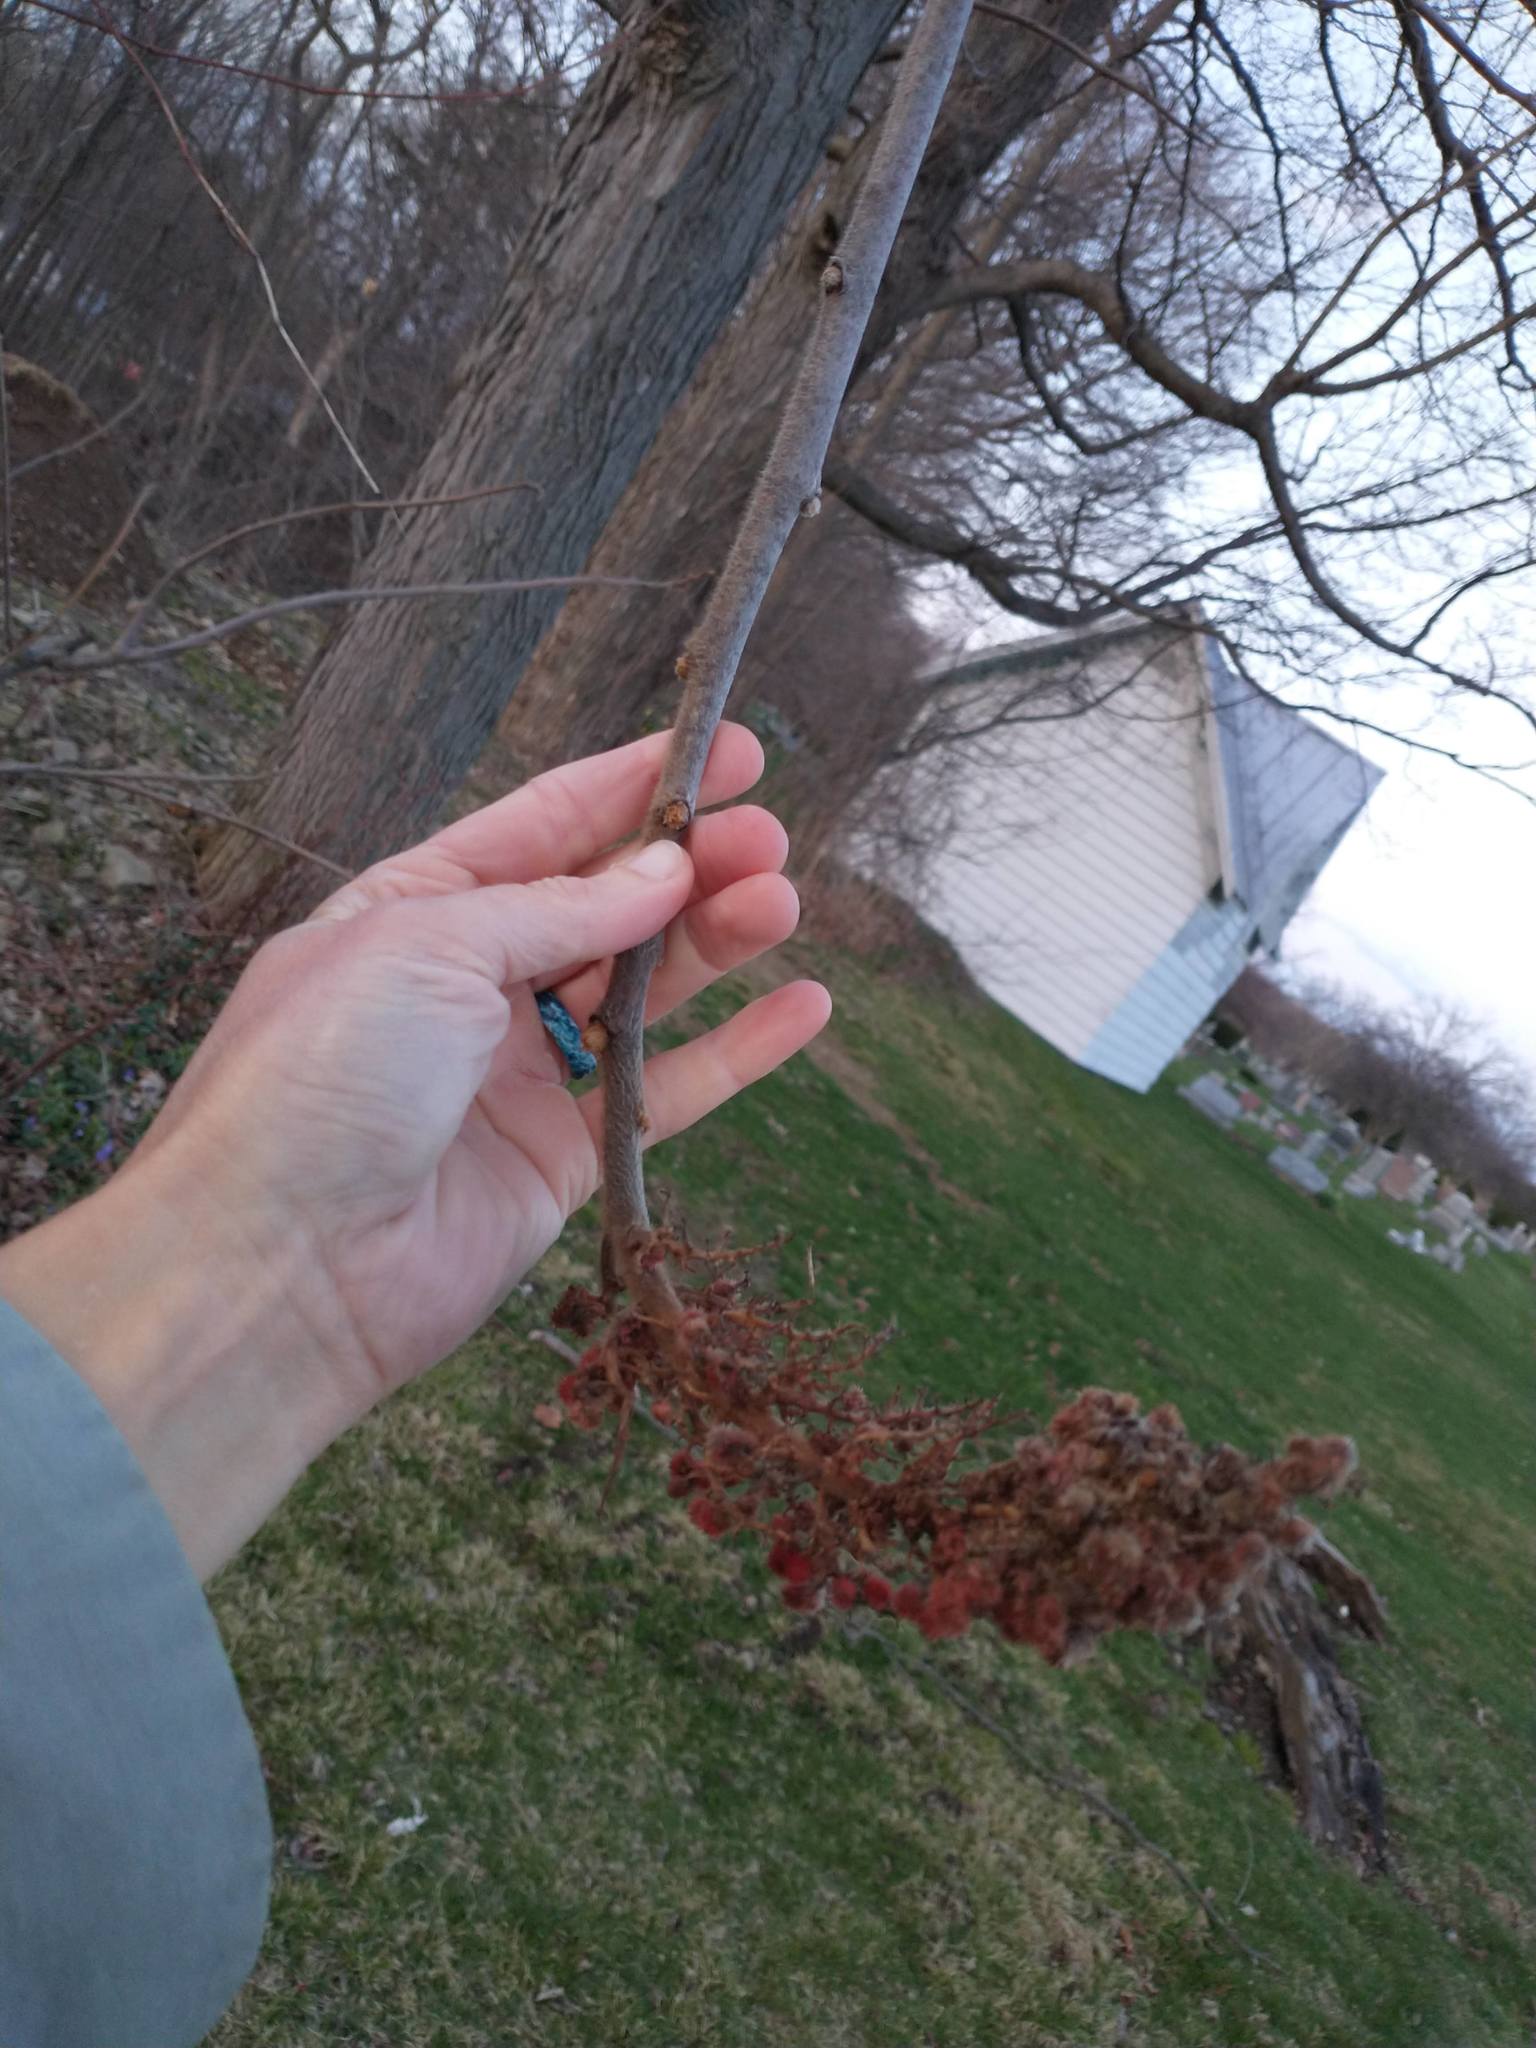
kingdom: Plantae
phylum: Tracheophyta
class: Magnoliopsida
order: Sapindales
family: Anacardiaceae
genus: Rhus
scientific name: Rhus typhina
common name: Staghorn sumac
